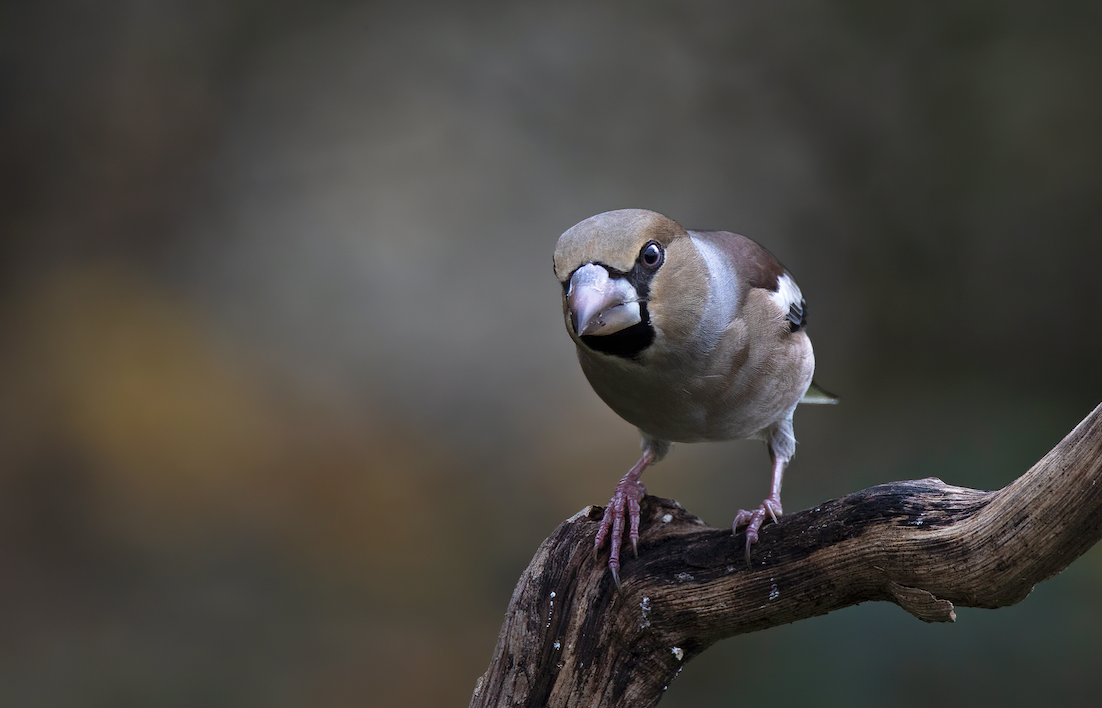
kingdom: Animalia
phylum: Chordata
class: Aves
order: Passeriformes
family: Fringillidae
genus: Coccothraustes
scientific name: Coccothraustes coccothraustes
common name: Hawfinch
